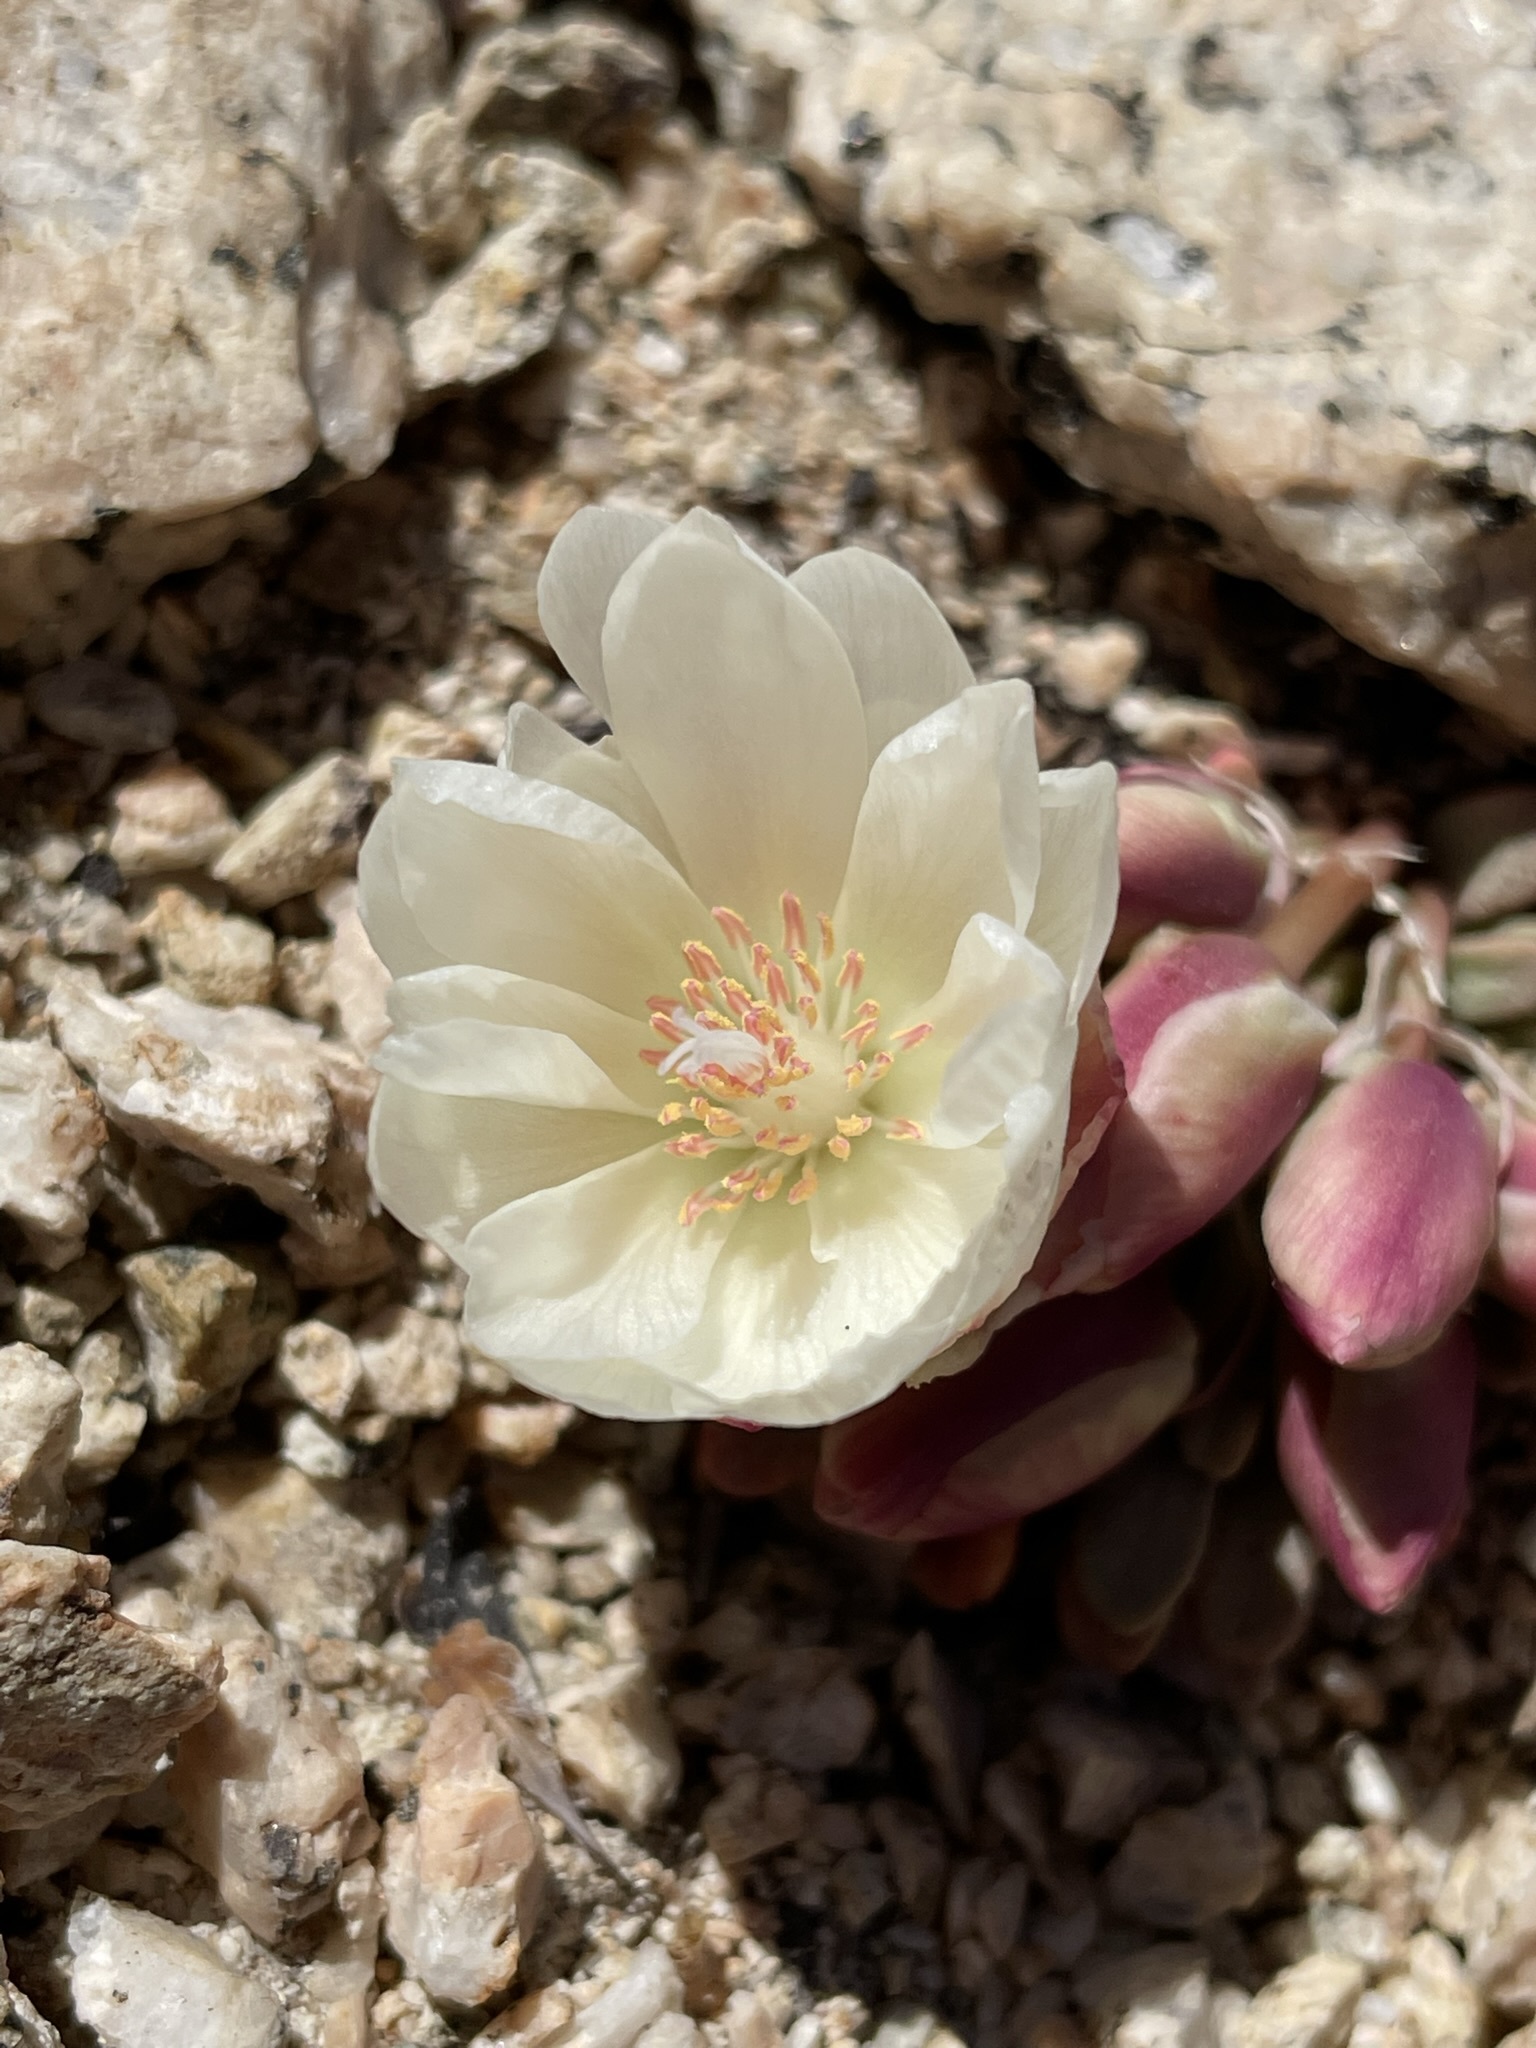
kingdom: Plantae
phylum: Tracheophyta
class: Magnoliopsida
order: Caryophyllales
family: Montiaceae
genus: Lewisia
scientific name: Lewisia rediviva
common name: Bitter-root
